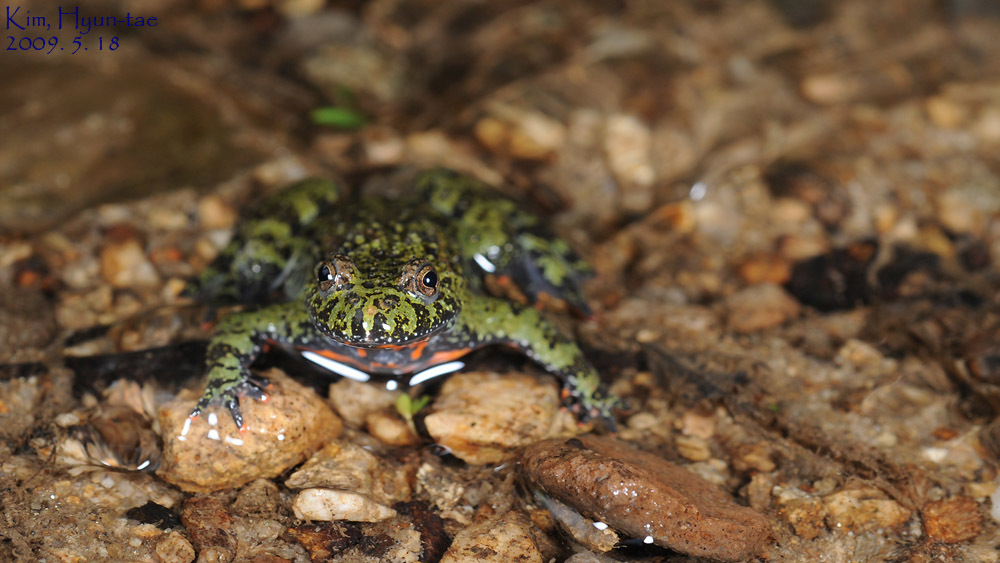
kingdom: Animalia
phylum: Chordata
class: Amphibia
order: Anura
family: Bombinatoridae
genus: Bombina
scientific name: Bombina orientalis
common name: Oriental firebelly toad
